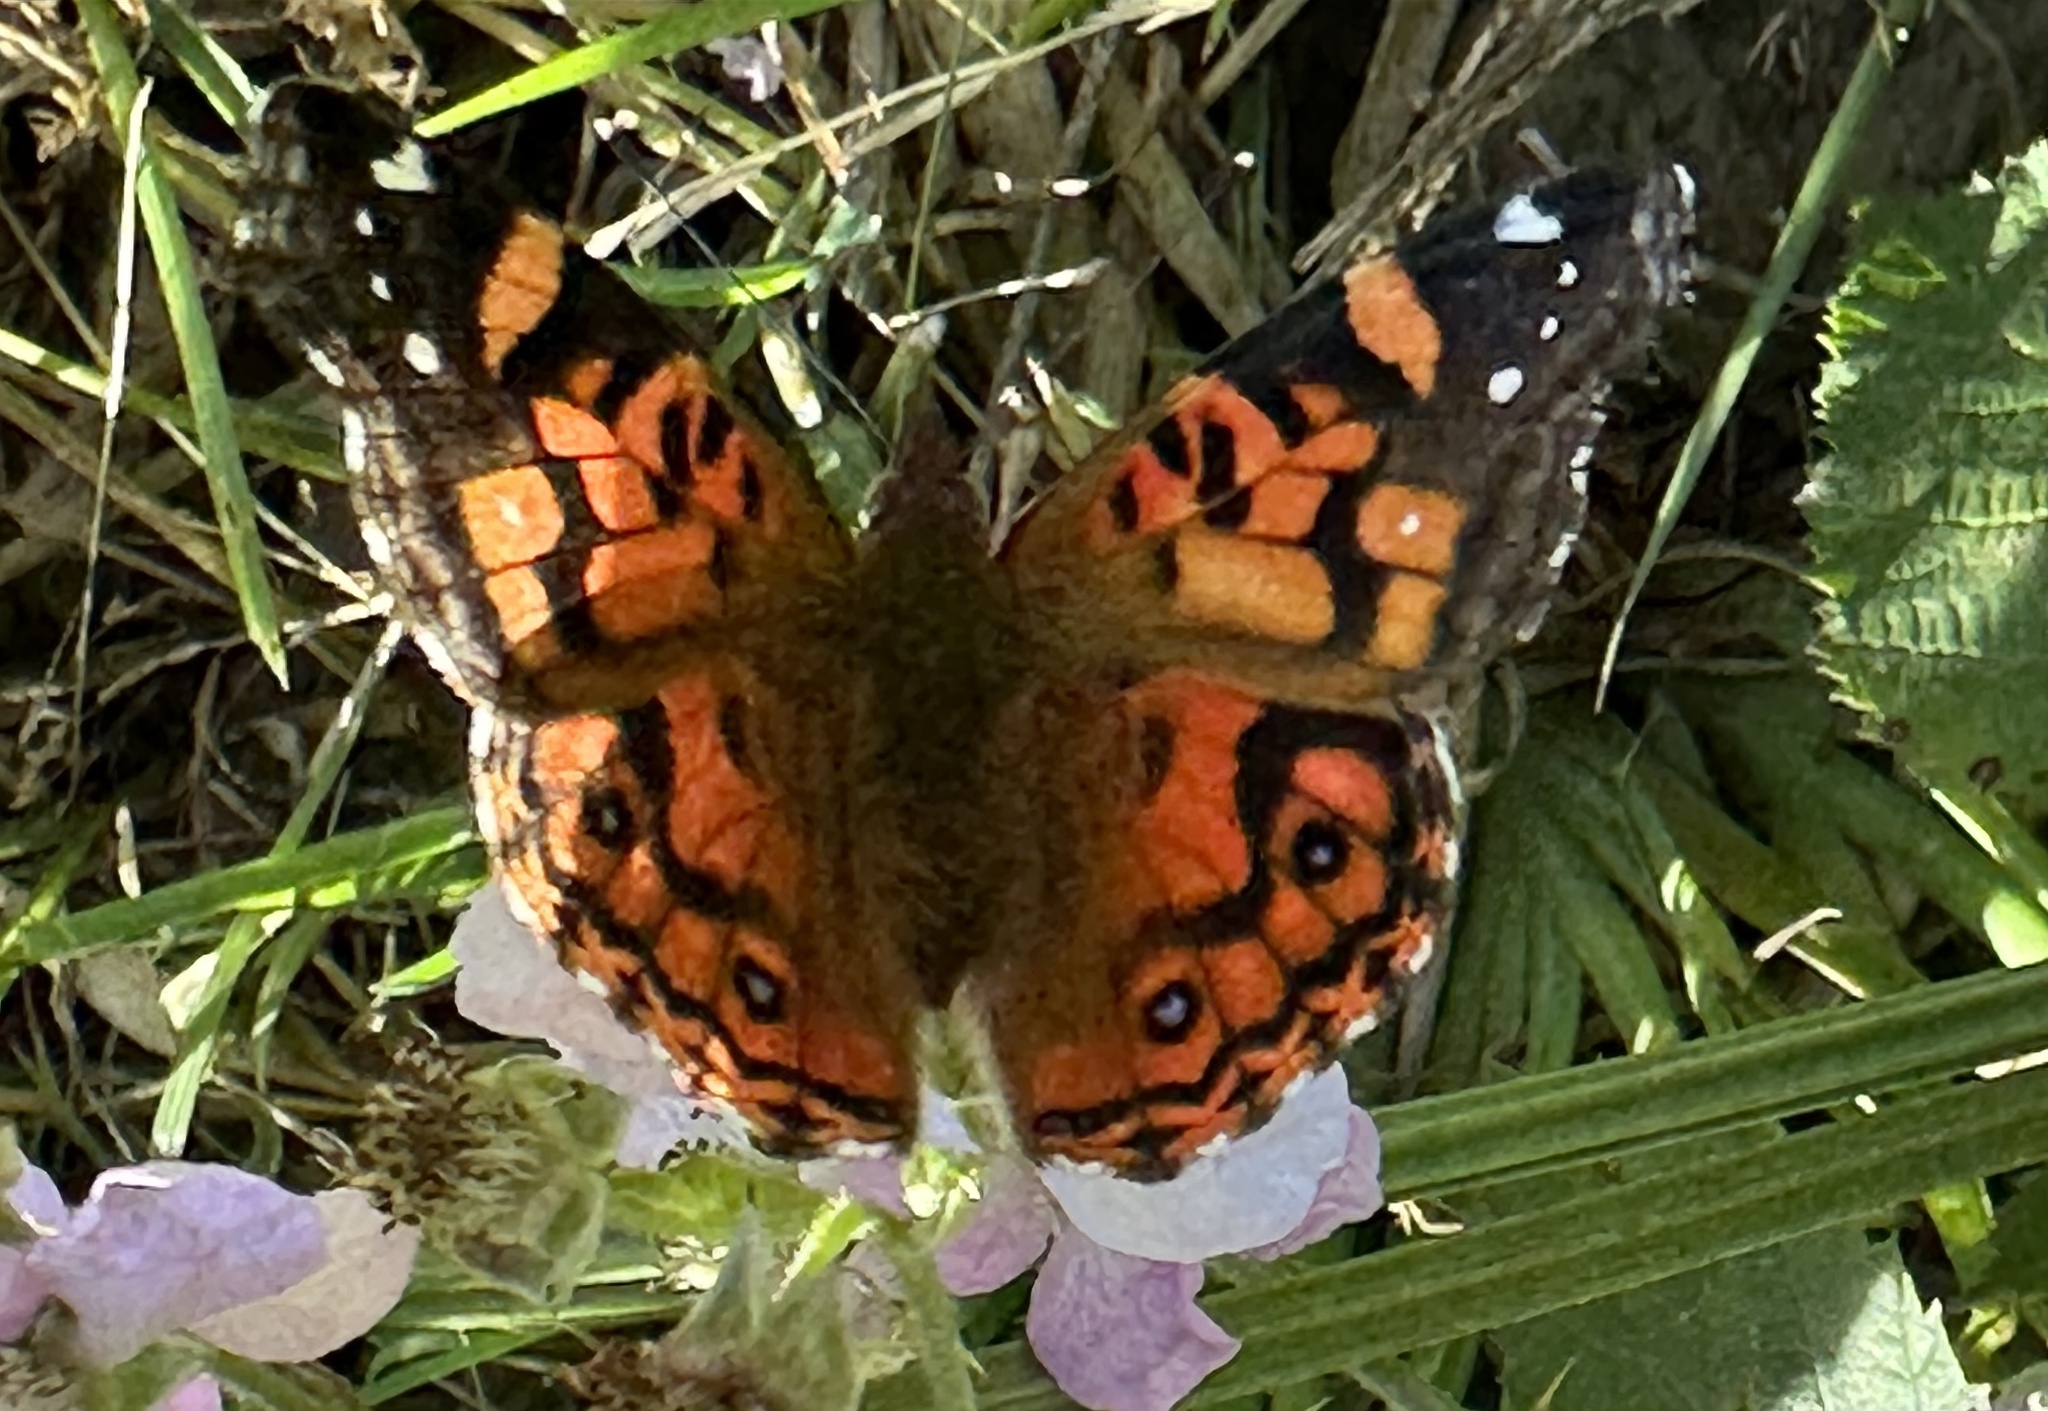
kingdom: Animalia
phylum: Arthropoda
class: Insecta
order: Lepidoptera
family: Nymphalidae
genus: Vanessa
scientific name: Vanessa terpsichore
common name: Chilean lady
